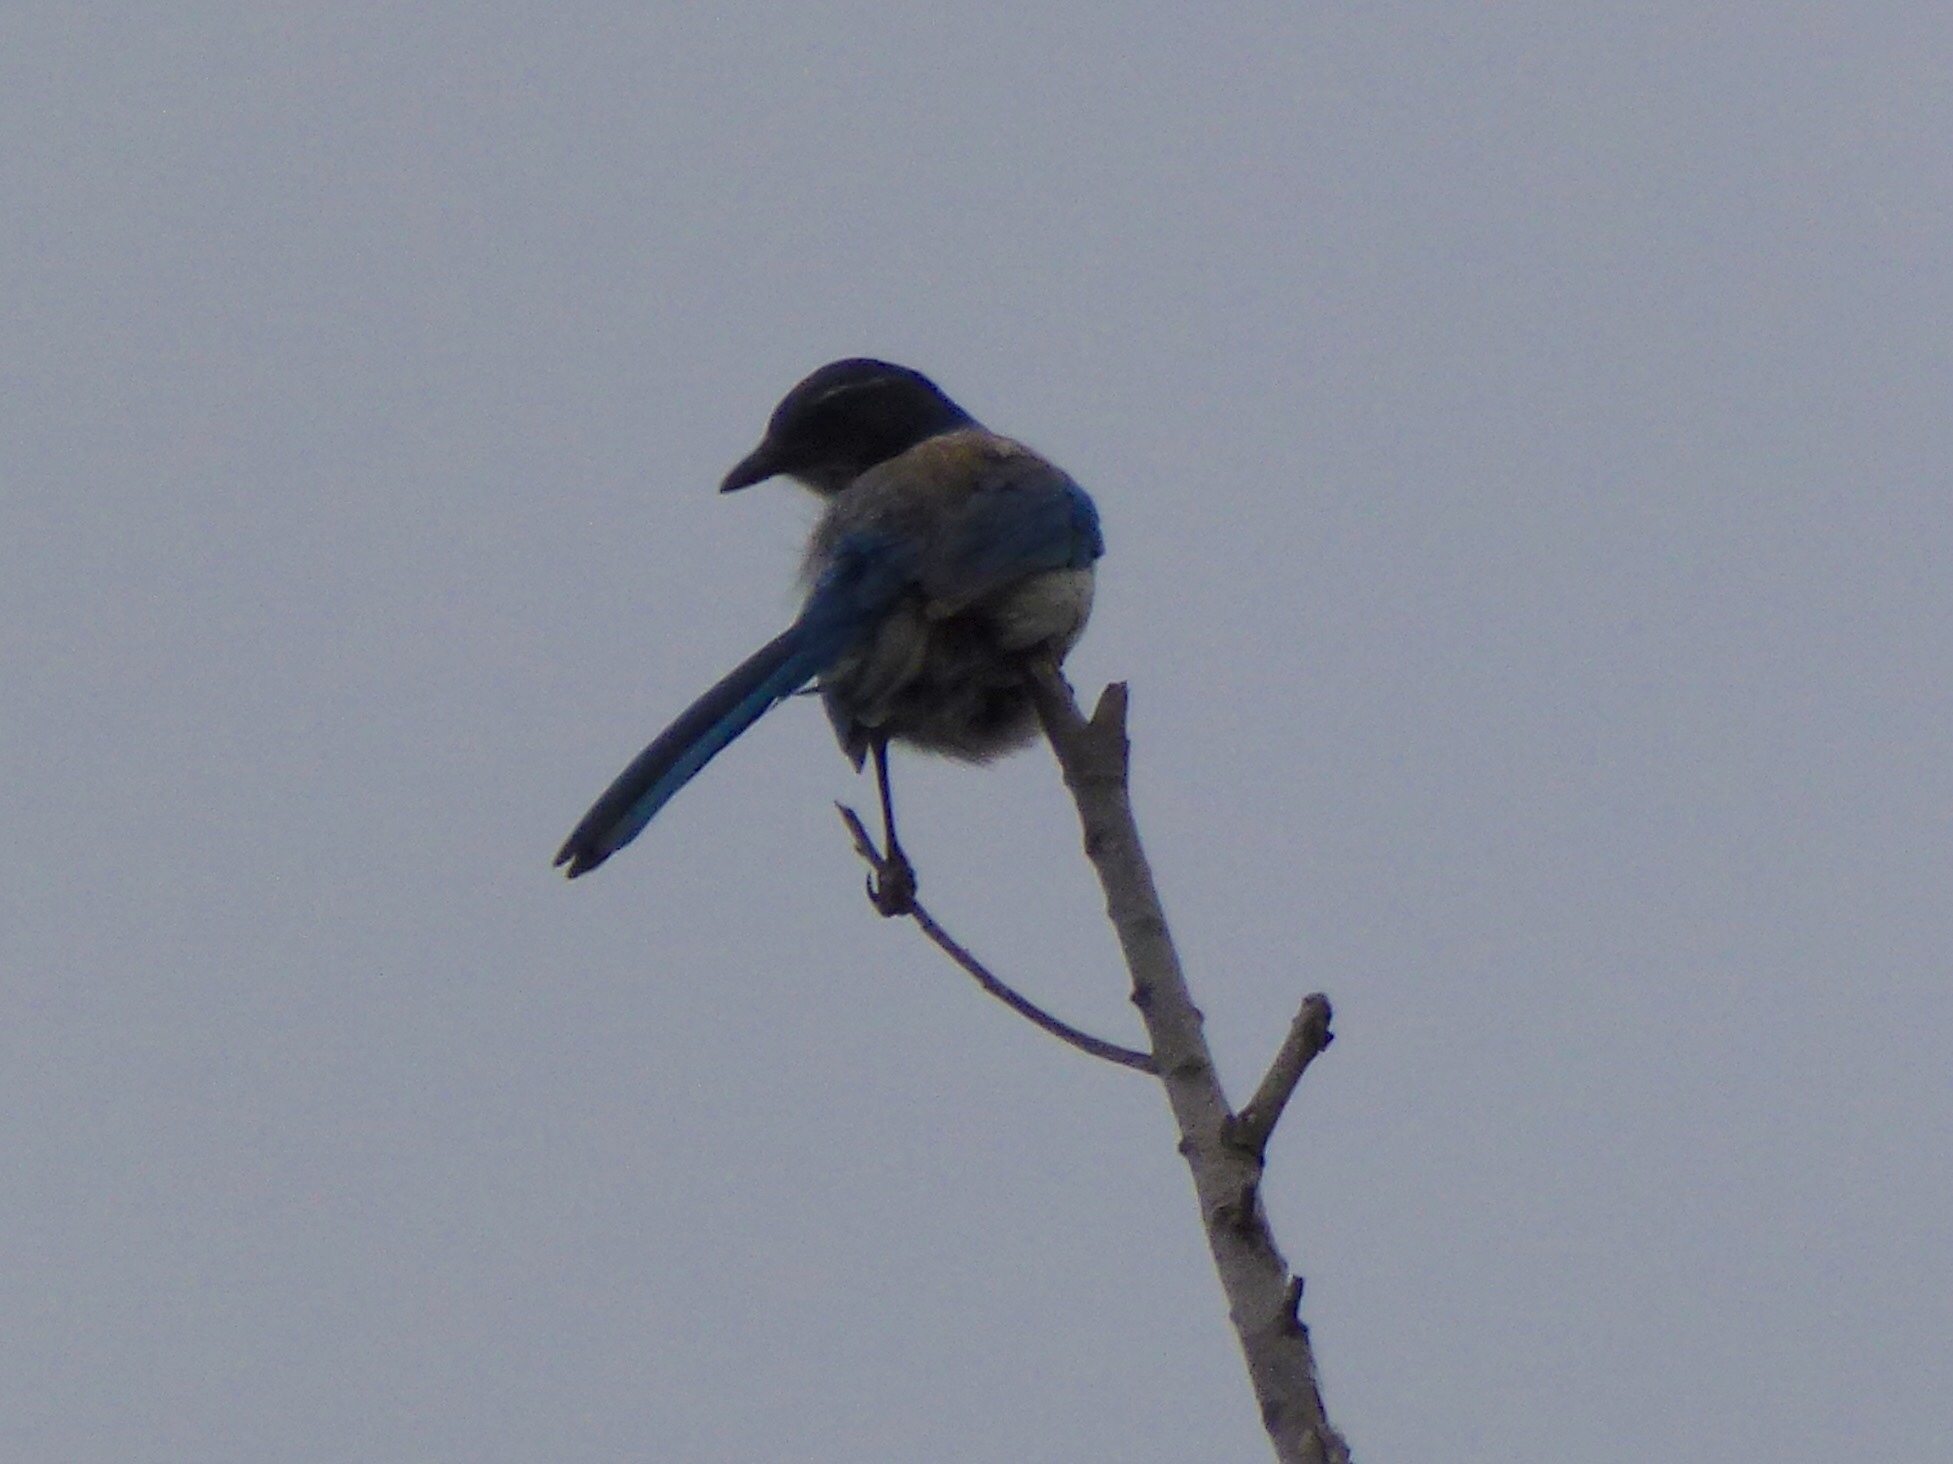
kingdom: Animalia
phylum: Chordata
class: Aves
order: Passeriformes
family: Corvidae
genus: Aphelocoma
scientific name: Aphelocoma californica
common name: California scrub-jay
